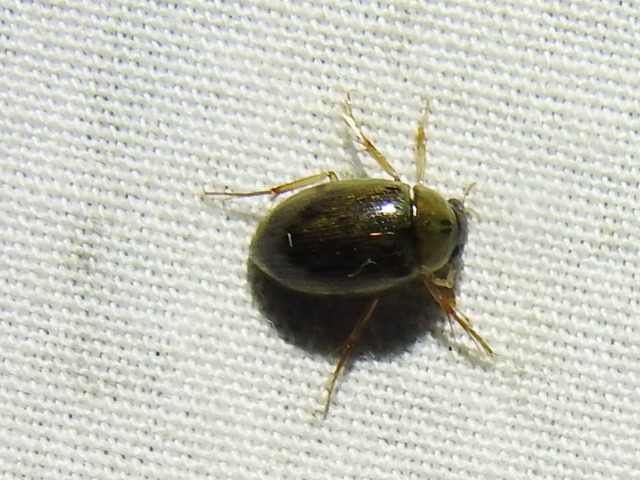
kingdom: Animalia
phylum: Arthropoda
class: Insecta
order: Coleoptera
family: Hydrophilidae
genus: Berosus
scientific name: Berosus
